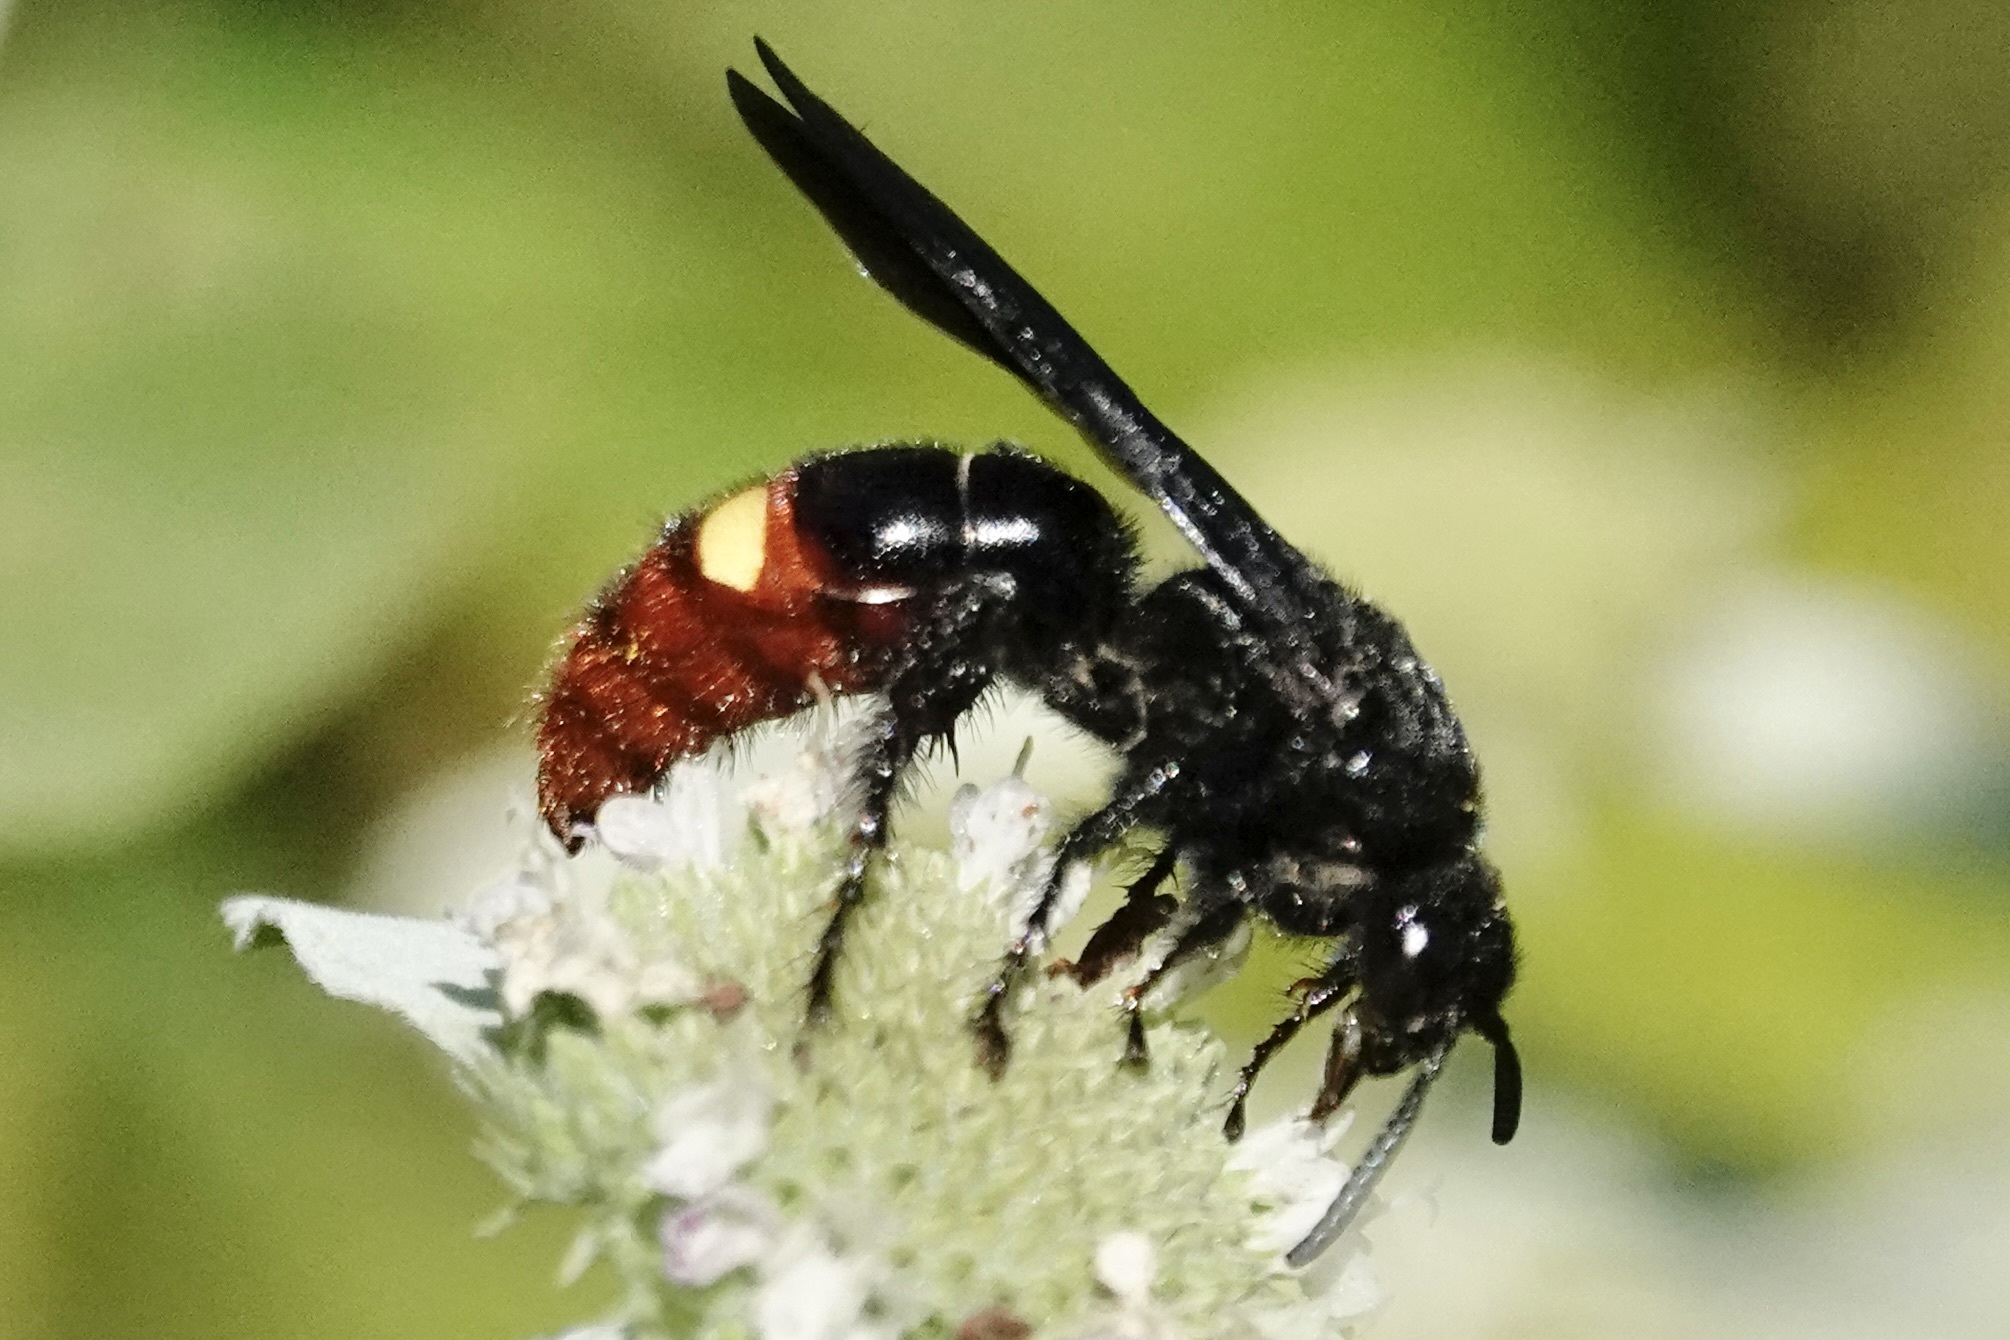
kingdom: Animalia
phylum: Arthropoda
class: Insecta
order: Hymenoptera
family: Scoliidae
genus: Scolia
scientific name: Scolia dubia
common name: Blue-winged scoliid wasp
